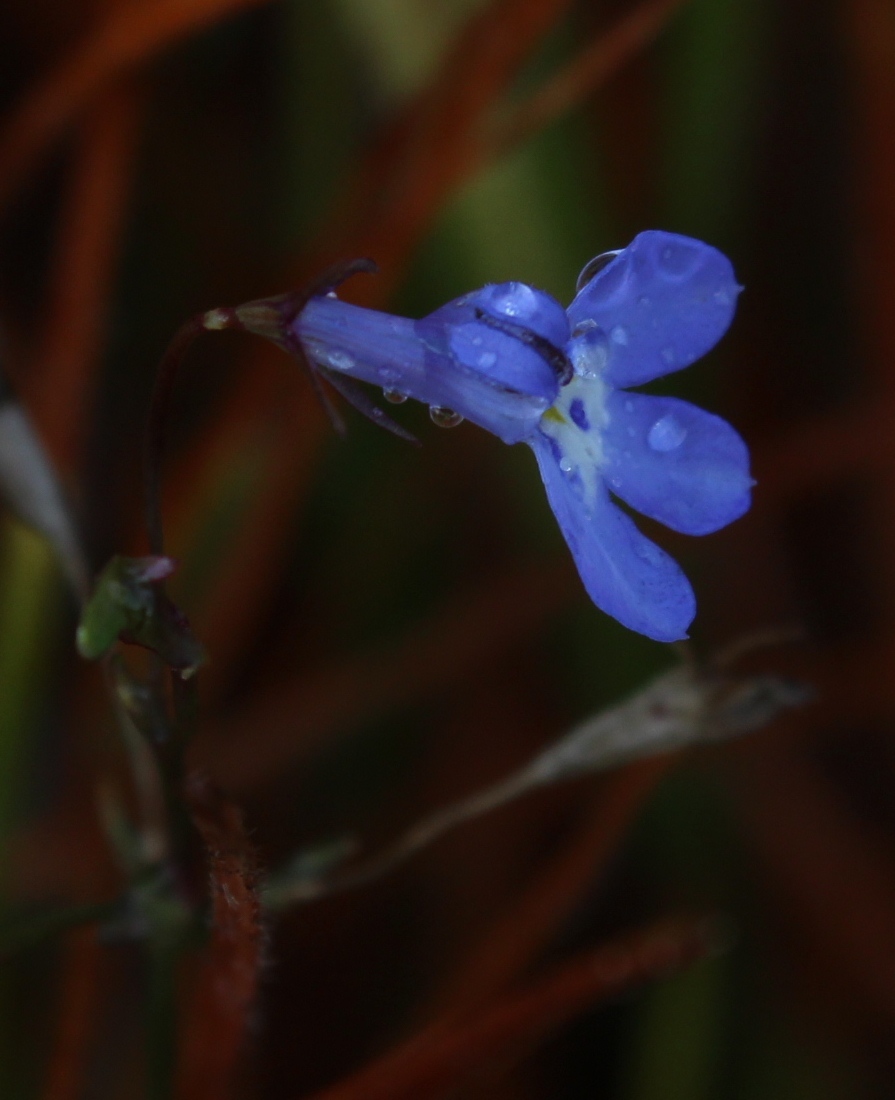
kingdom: Plantae
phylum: Tracheophyta
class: Magnoliopsida
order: Asterales
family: Campanulaceae
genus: Lobelia
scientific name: Lobelia erinus
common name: Edging lobelia
